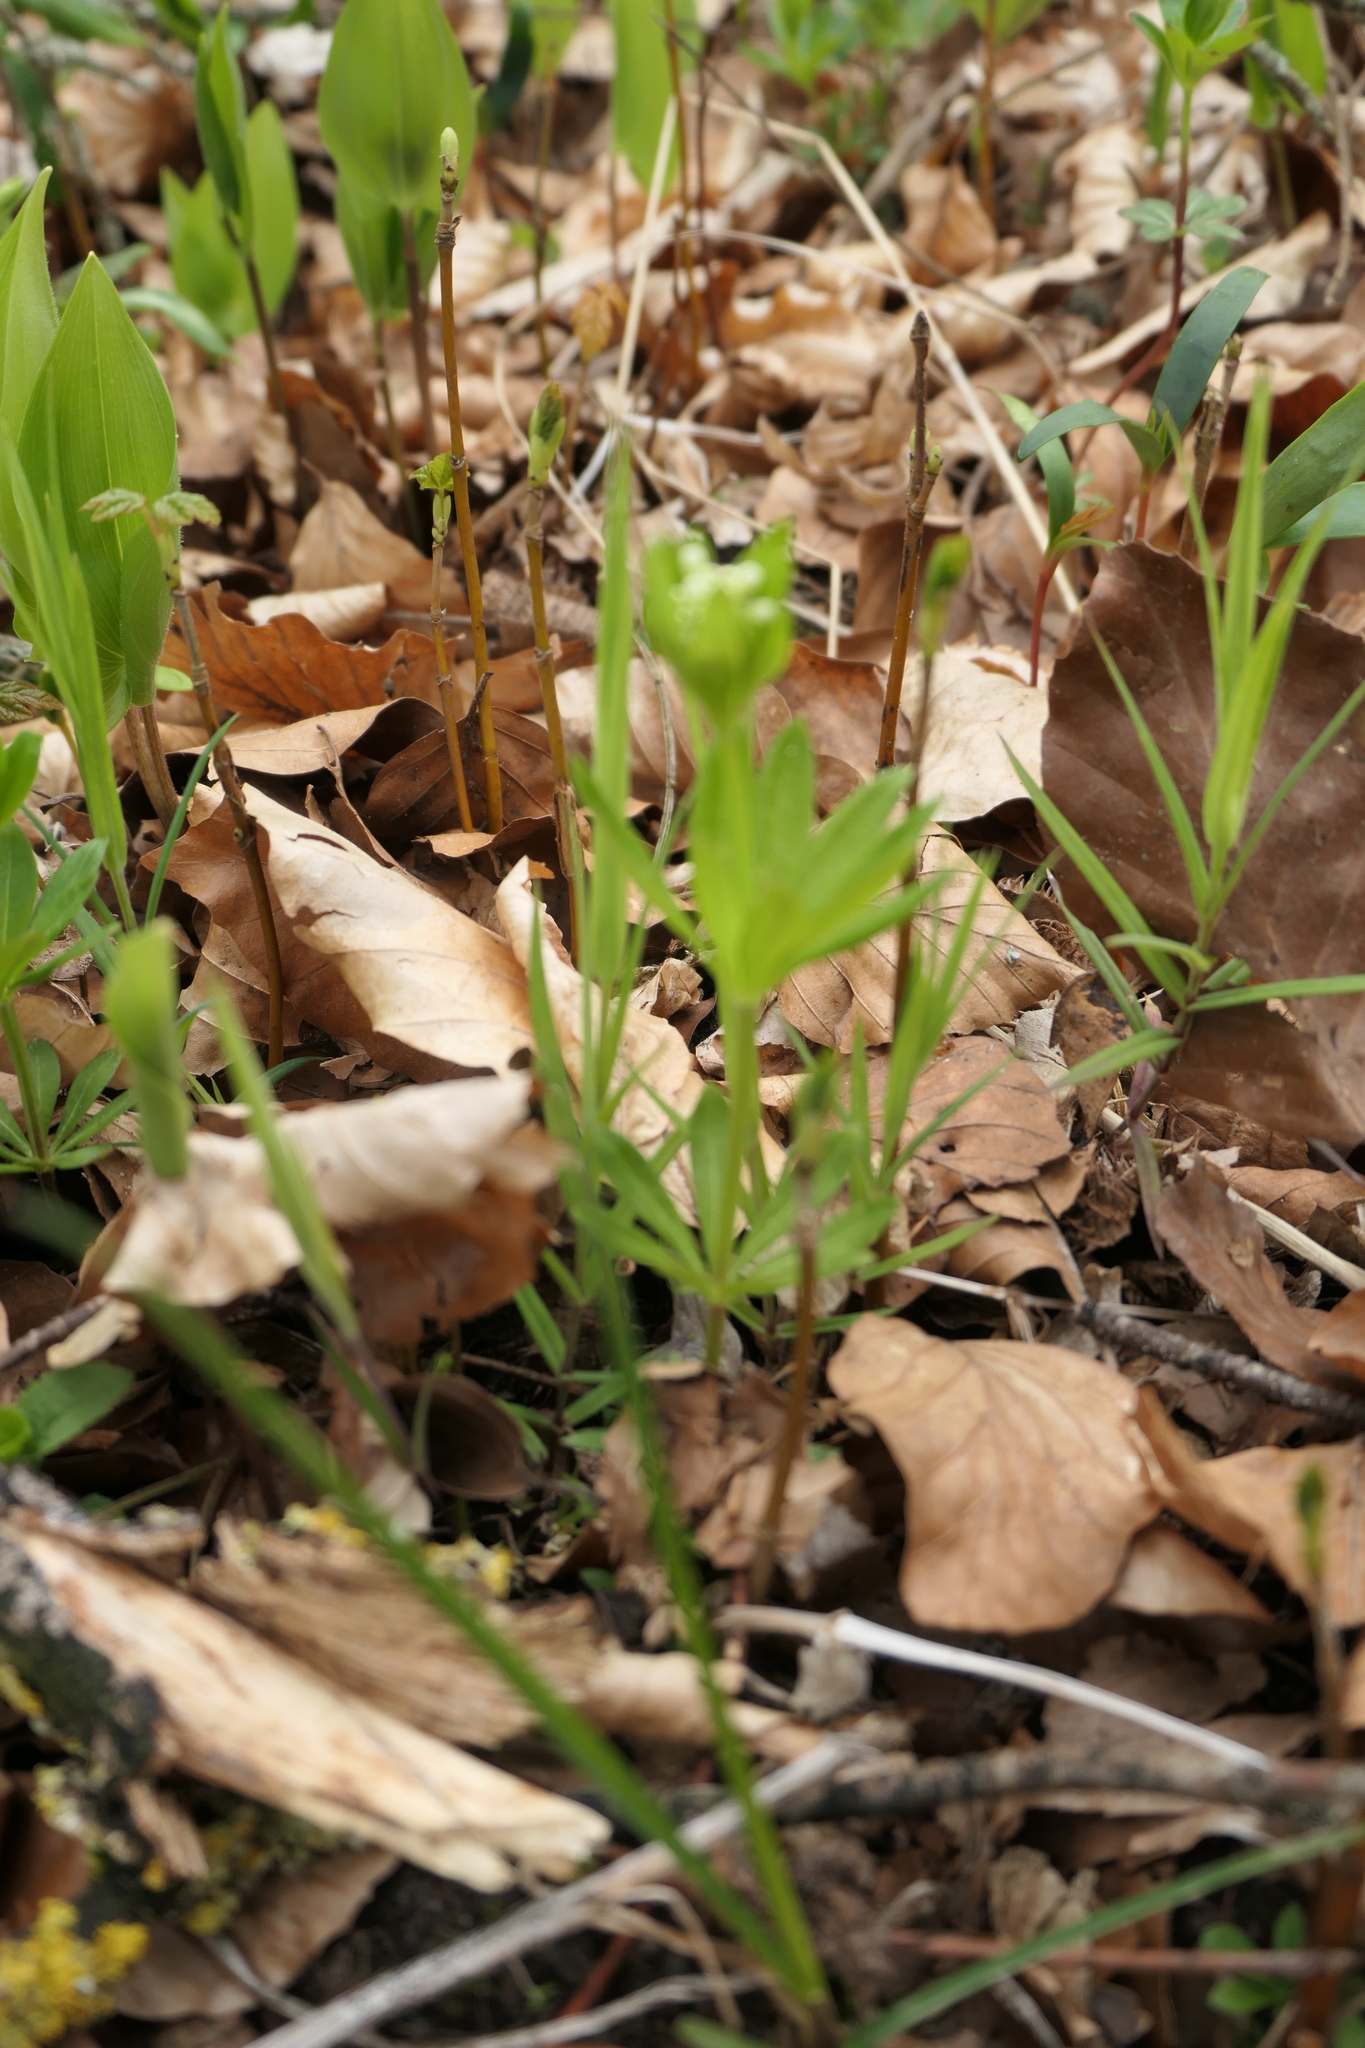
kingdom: Plantae
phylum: Tracheophyta
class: Magnoliopsida
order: Gentianales
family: Rubiaceae
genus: Galium
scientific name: Galium odoratum
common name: Sweet woodruff
